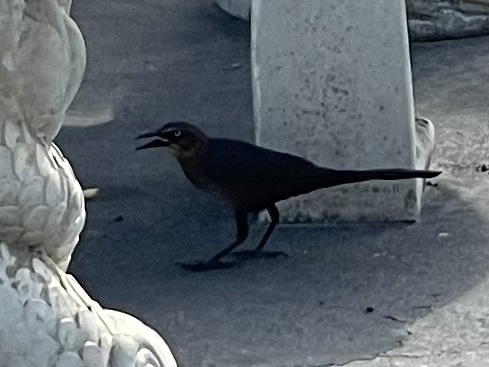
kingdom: Animalia
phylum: Chordata
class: Aves
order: Passeriformes
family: Icteridae
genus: Quiscalus
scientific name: Quiscalus mexicanus
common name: Great-tailed grackle
